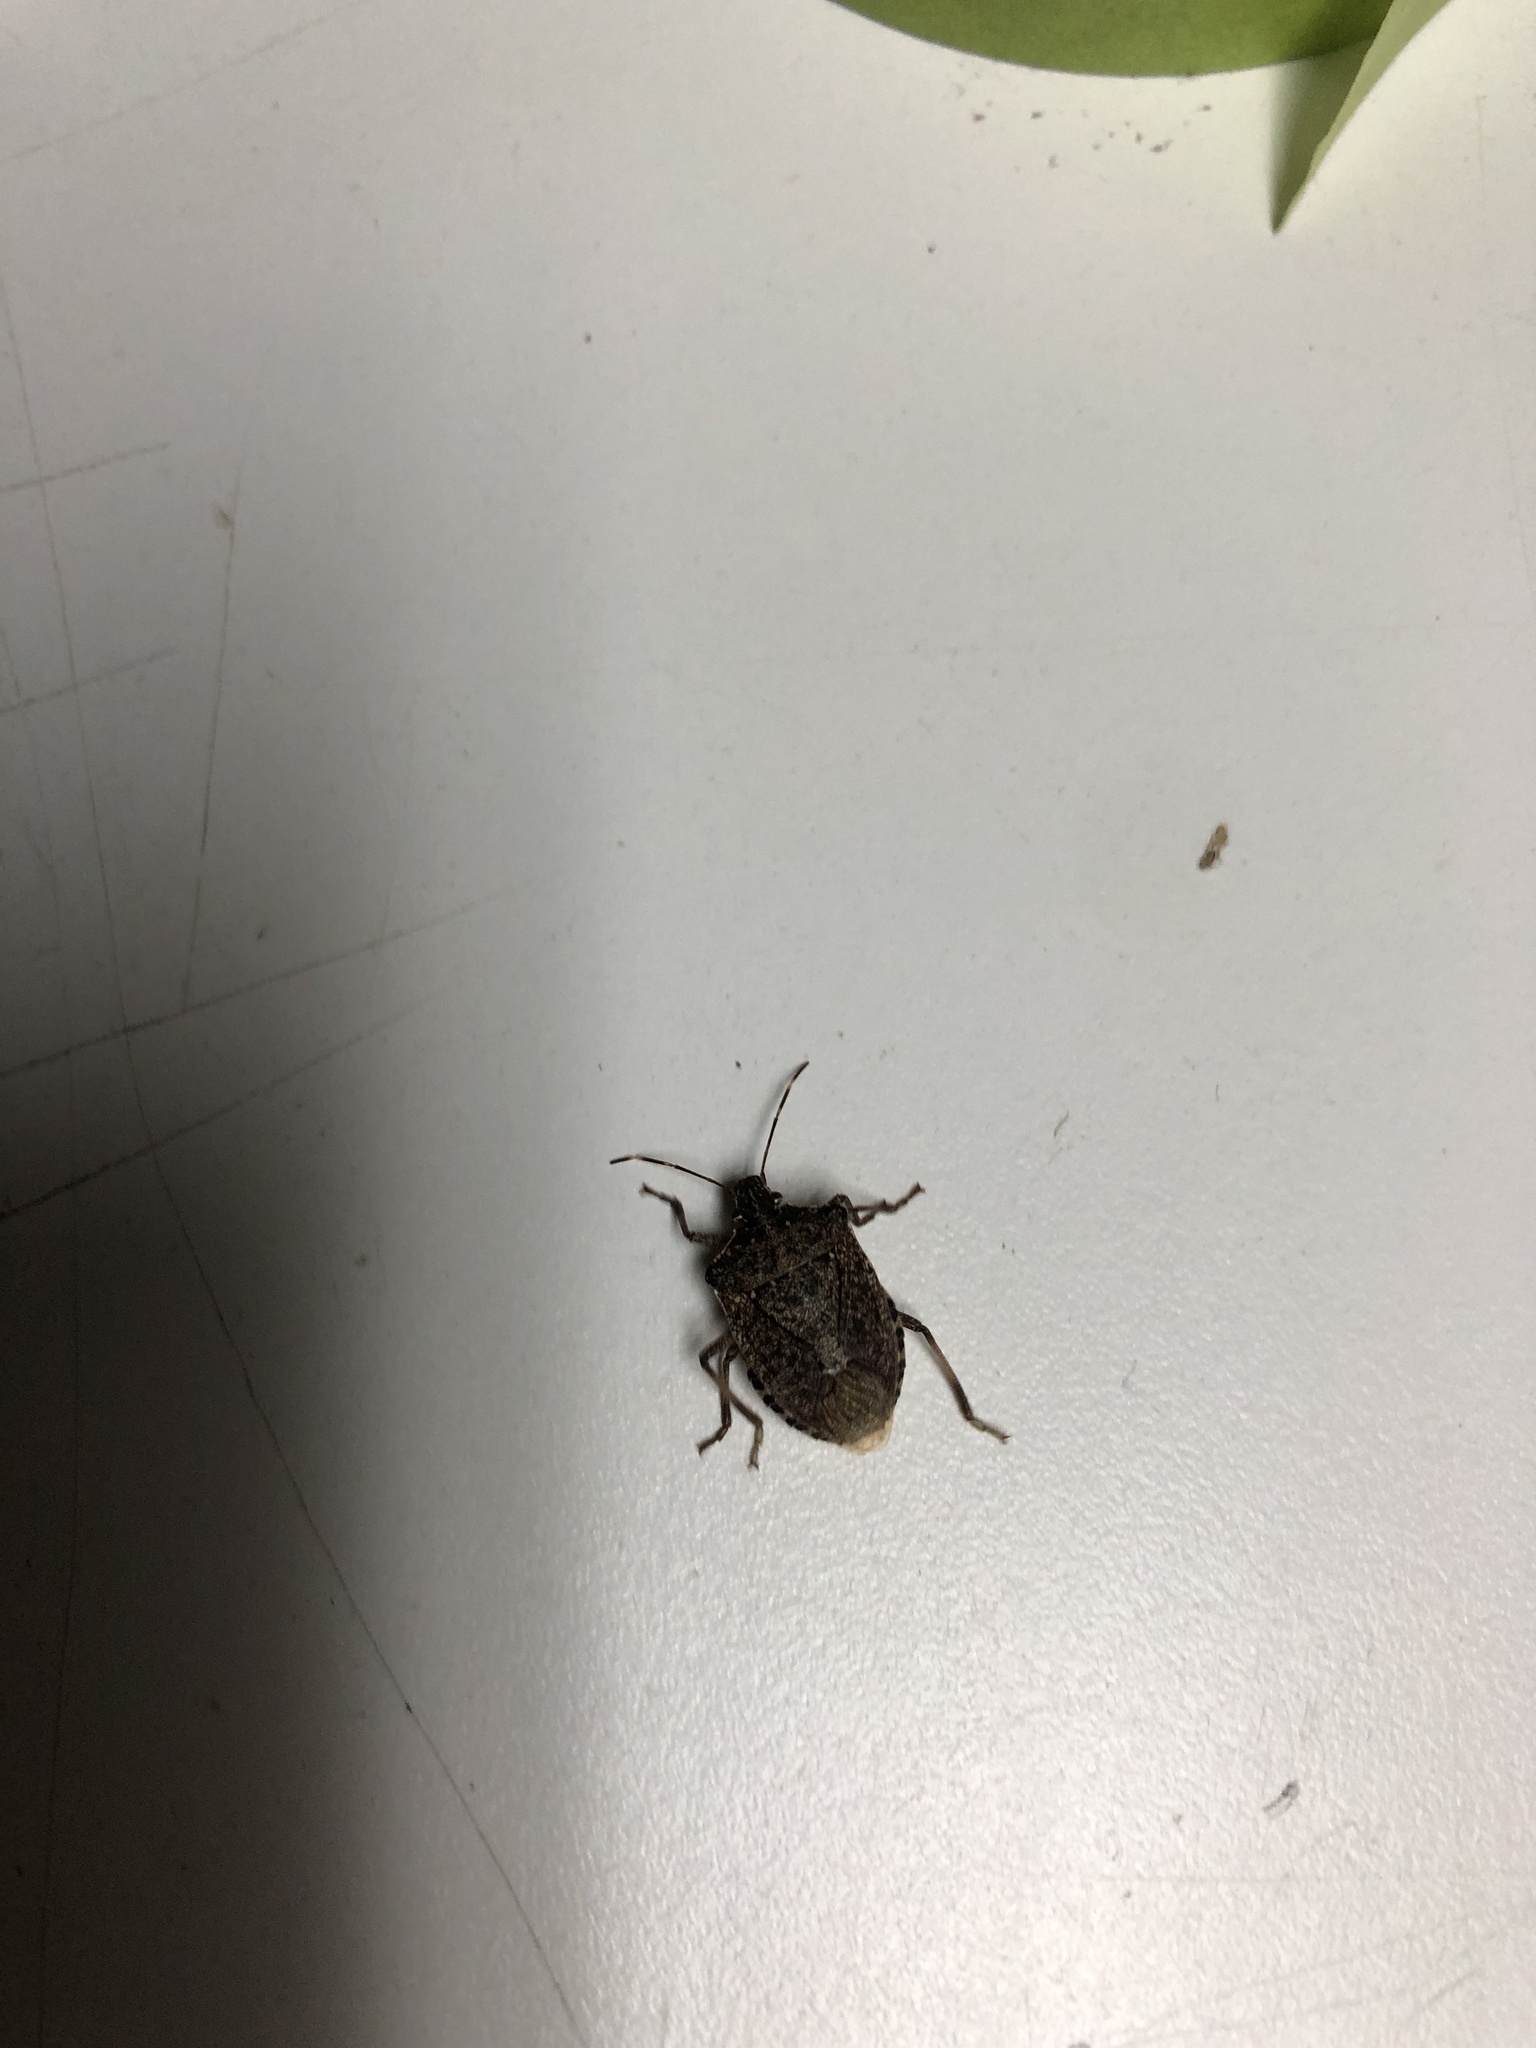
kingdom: Animalia
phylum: Arthropoda
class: Insecta
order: Hemiptera
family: Pentatomidae
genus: Halyomorpha
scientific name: Halyomorpha halys
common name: Brown marmorated stink bug
